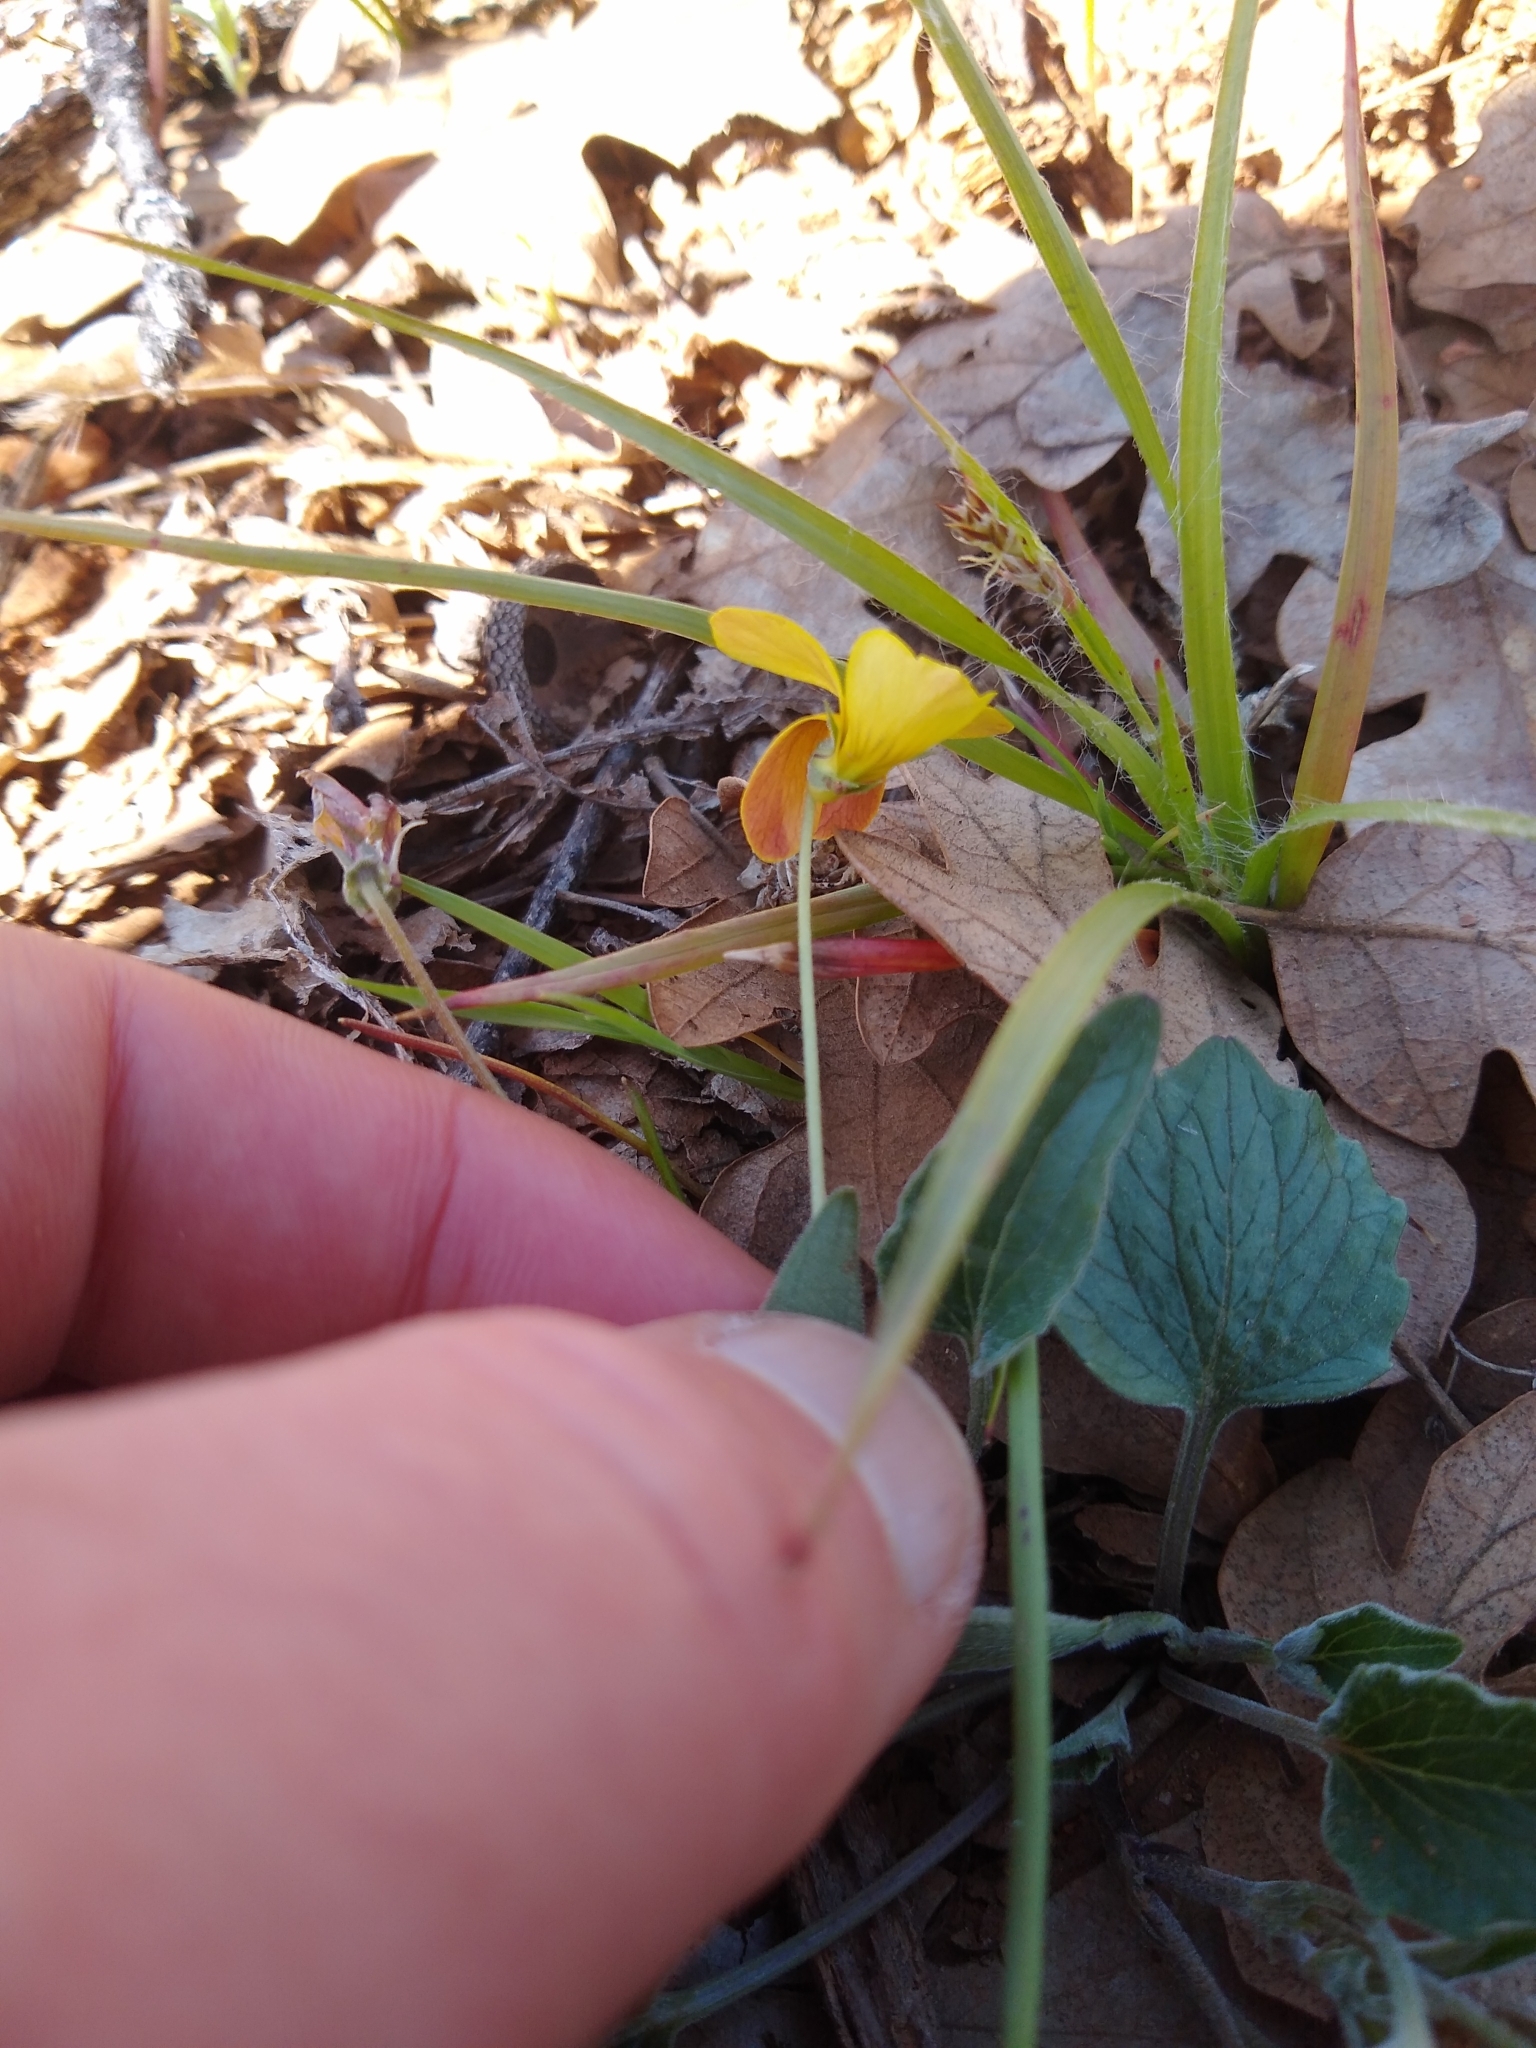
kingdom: Plantae
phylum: Tracheophyta
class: Magnoliopsida
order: Malpighiales
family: Violaceae
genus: Viola
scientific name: Viola purpurea
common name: Pine violet
